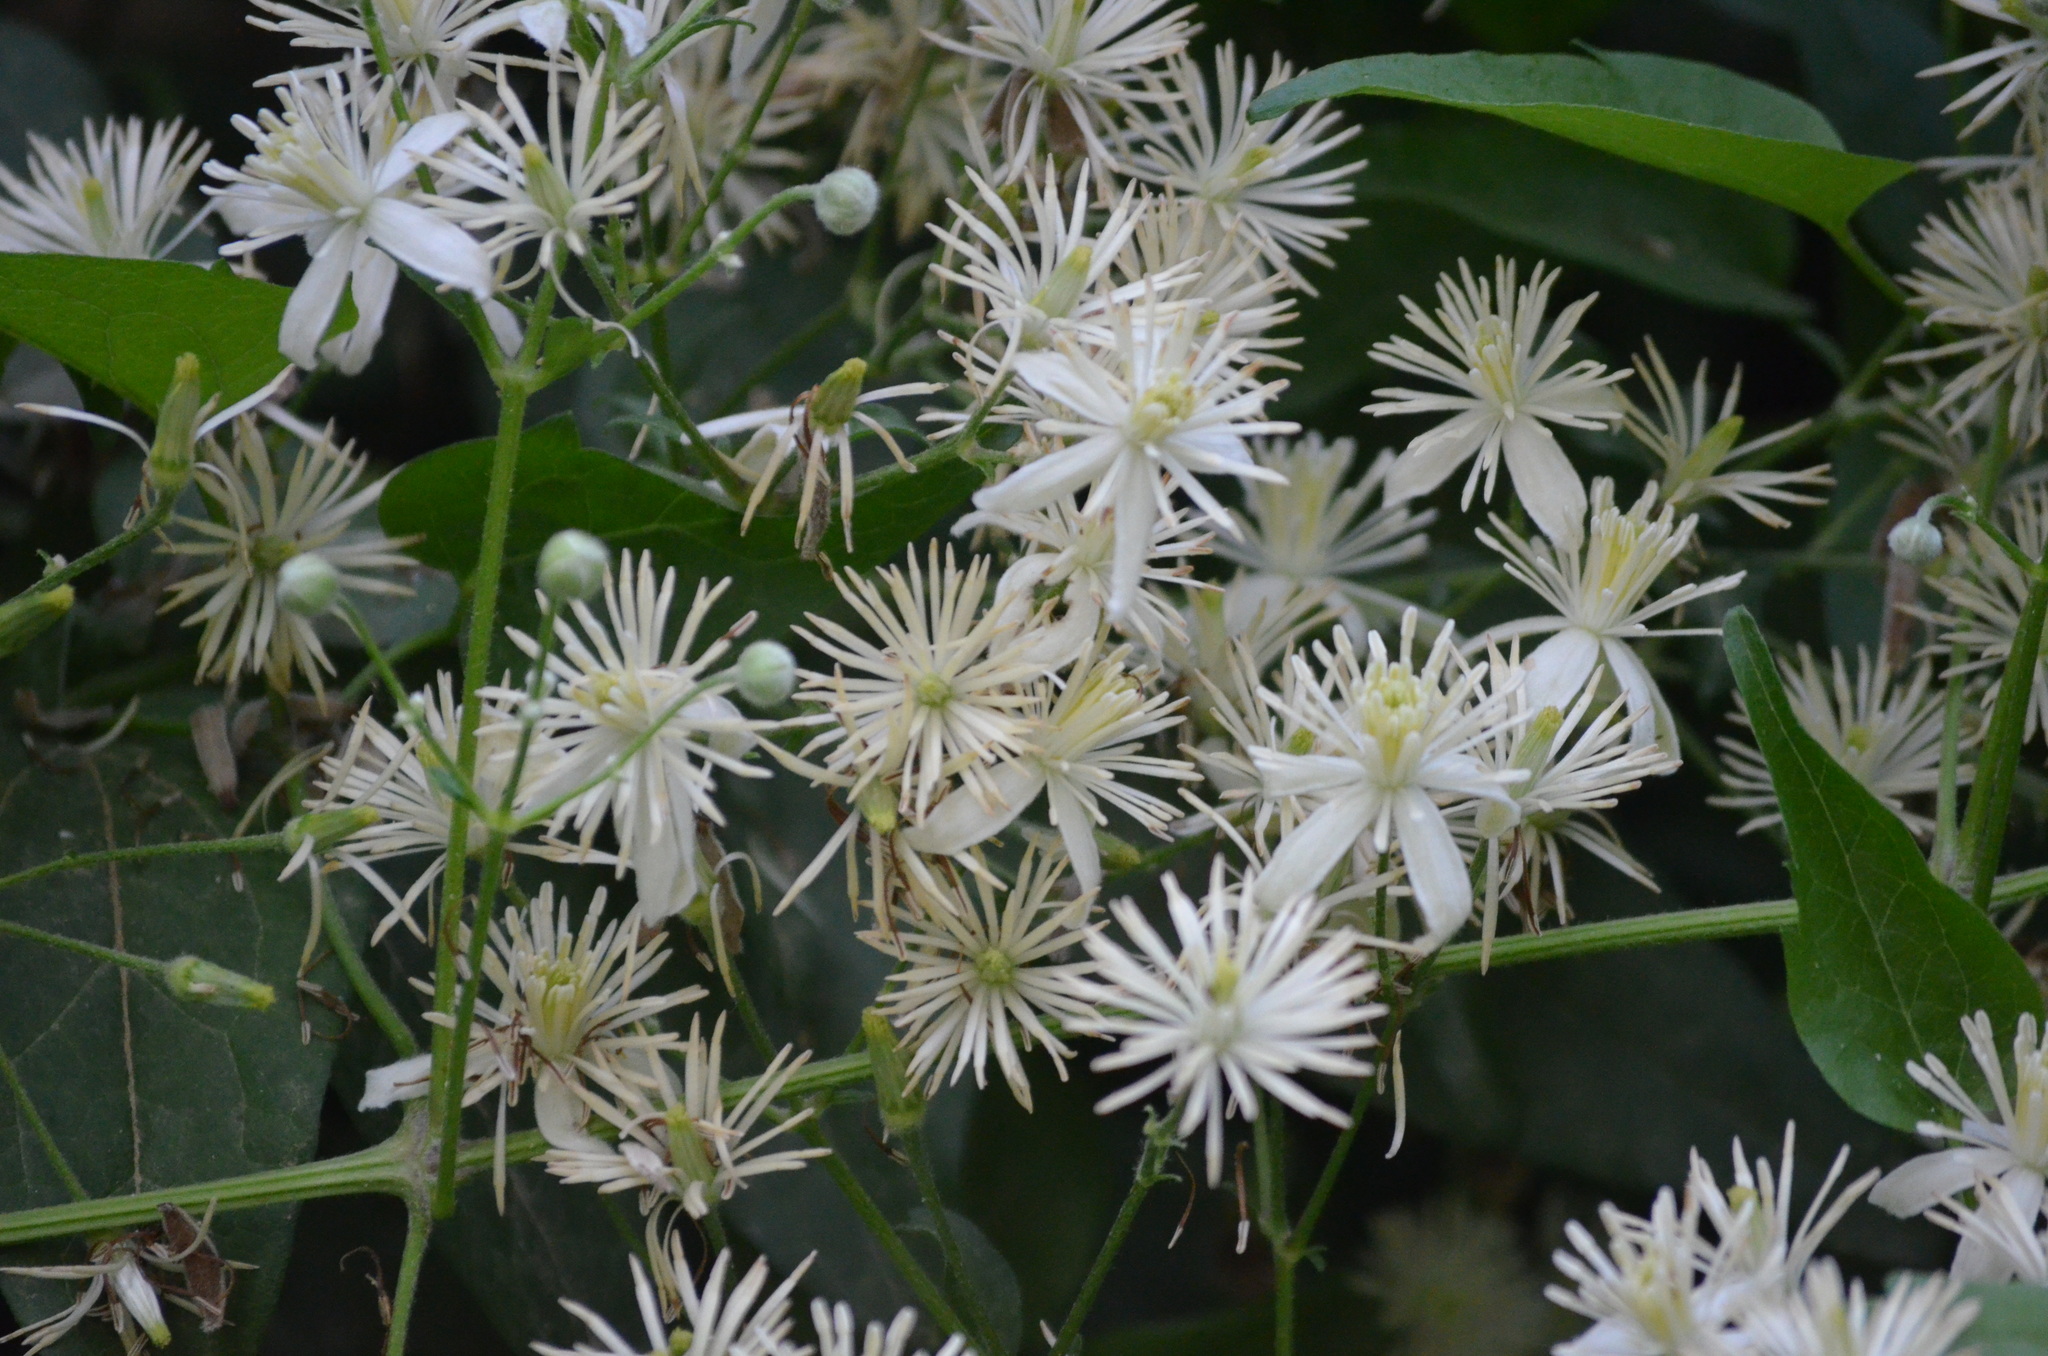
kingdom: Plantae
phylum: Tracheophyta
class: Magnoliopsida
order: Ranunculales
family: Ranunculaceae
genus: Clematis
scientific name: Clematis vitalba
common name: Evergreen clematis
